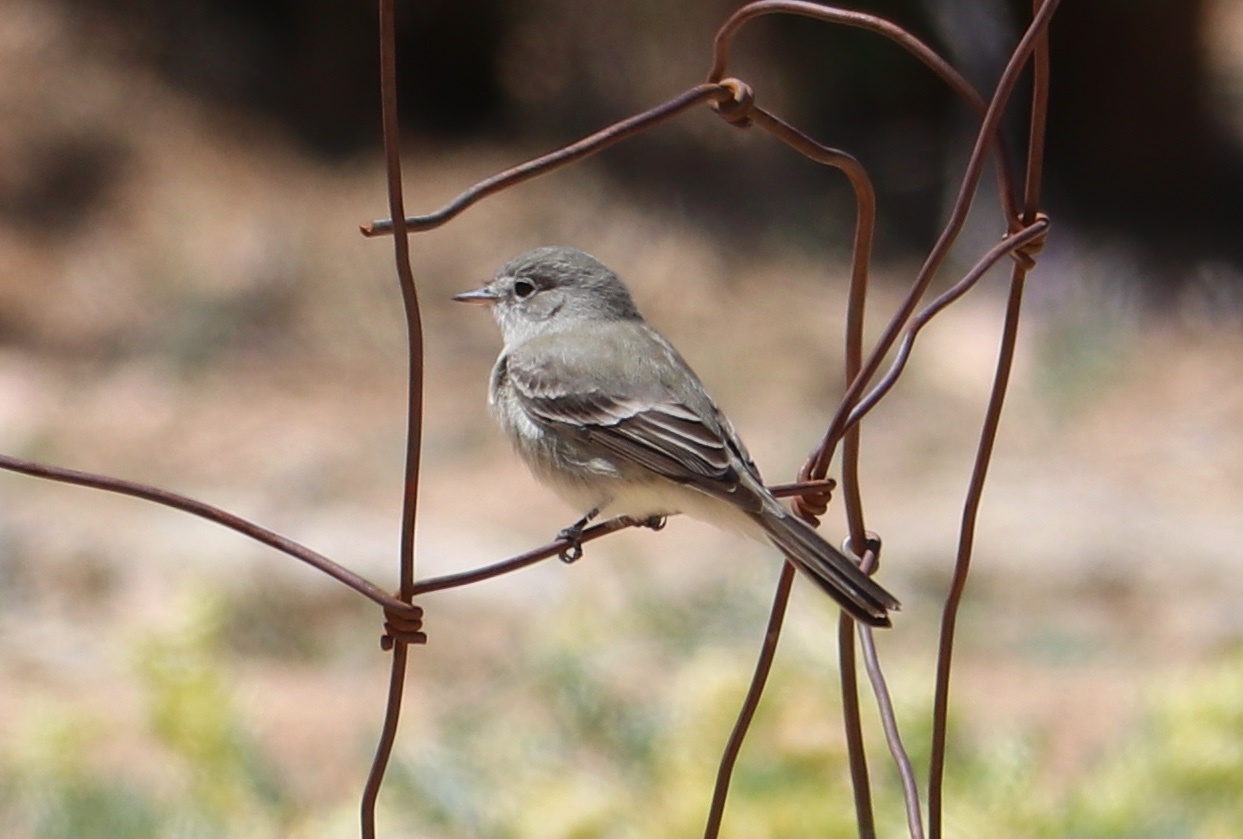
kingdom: Animalia
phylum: Chordata
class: Aves
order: Passeriformes
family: Tyrannidae
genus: Empidonax
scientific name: Empidonax wrightii
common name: Gray flycatcher
